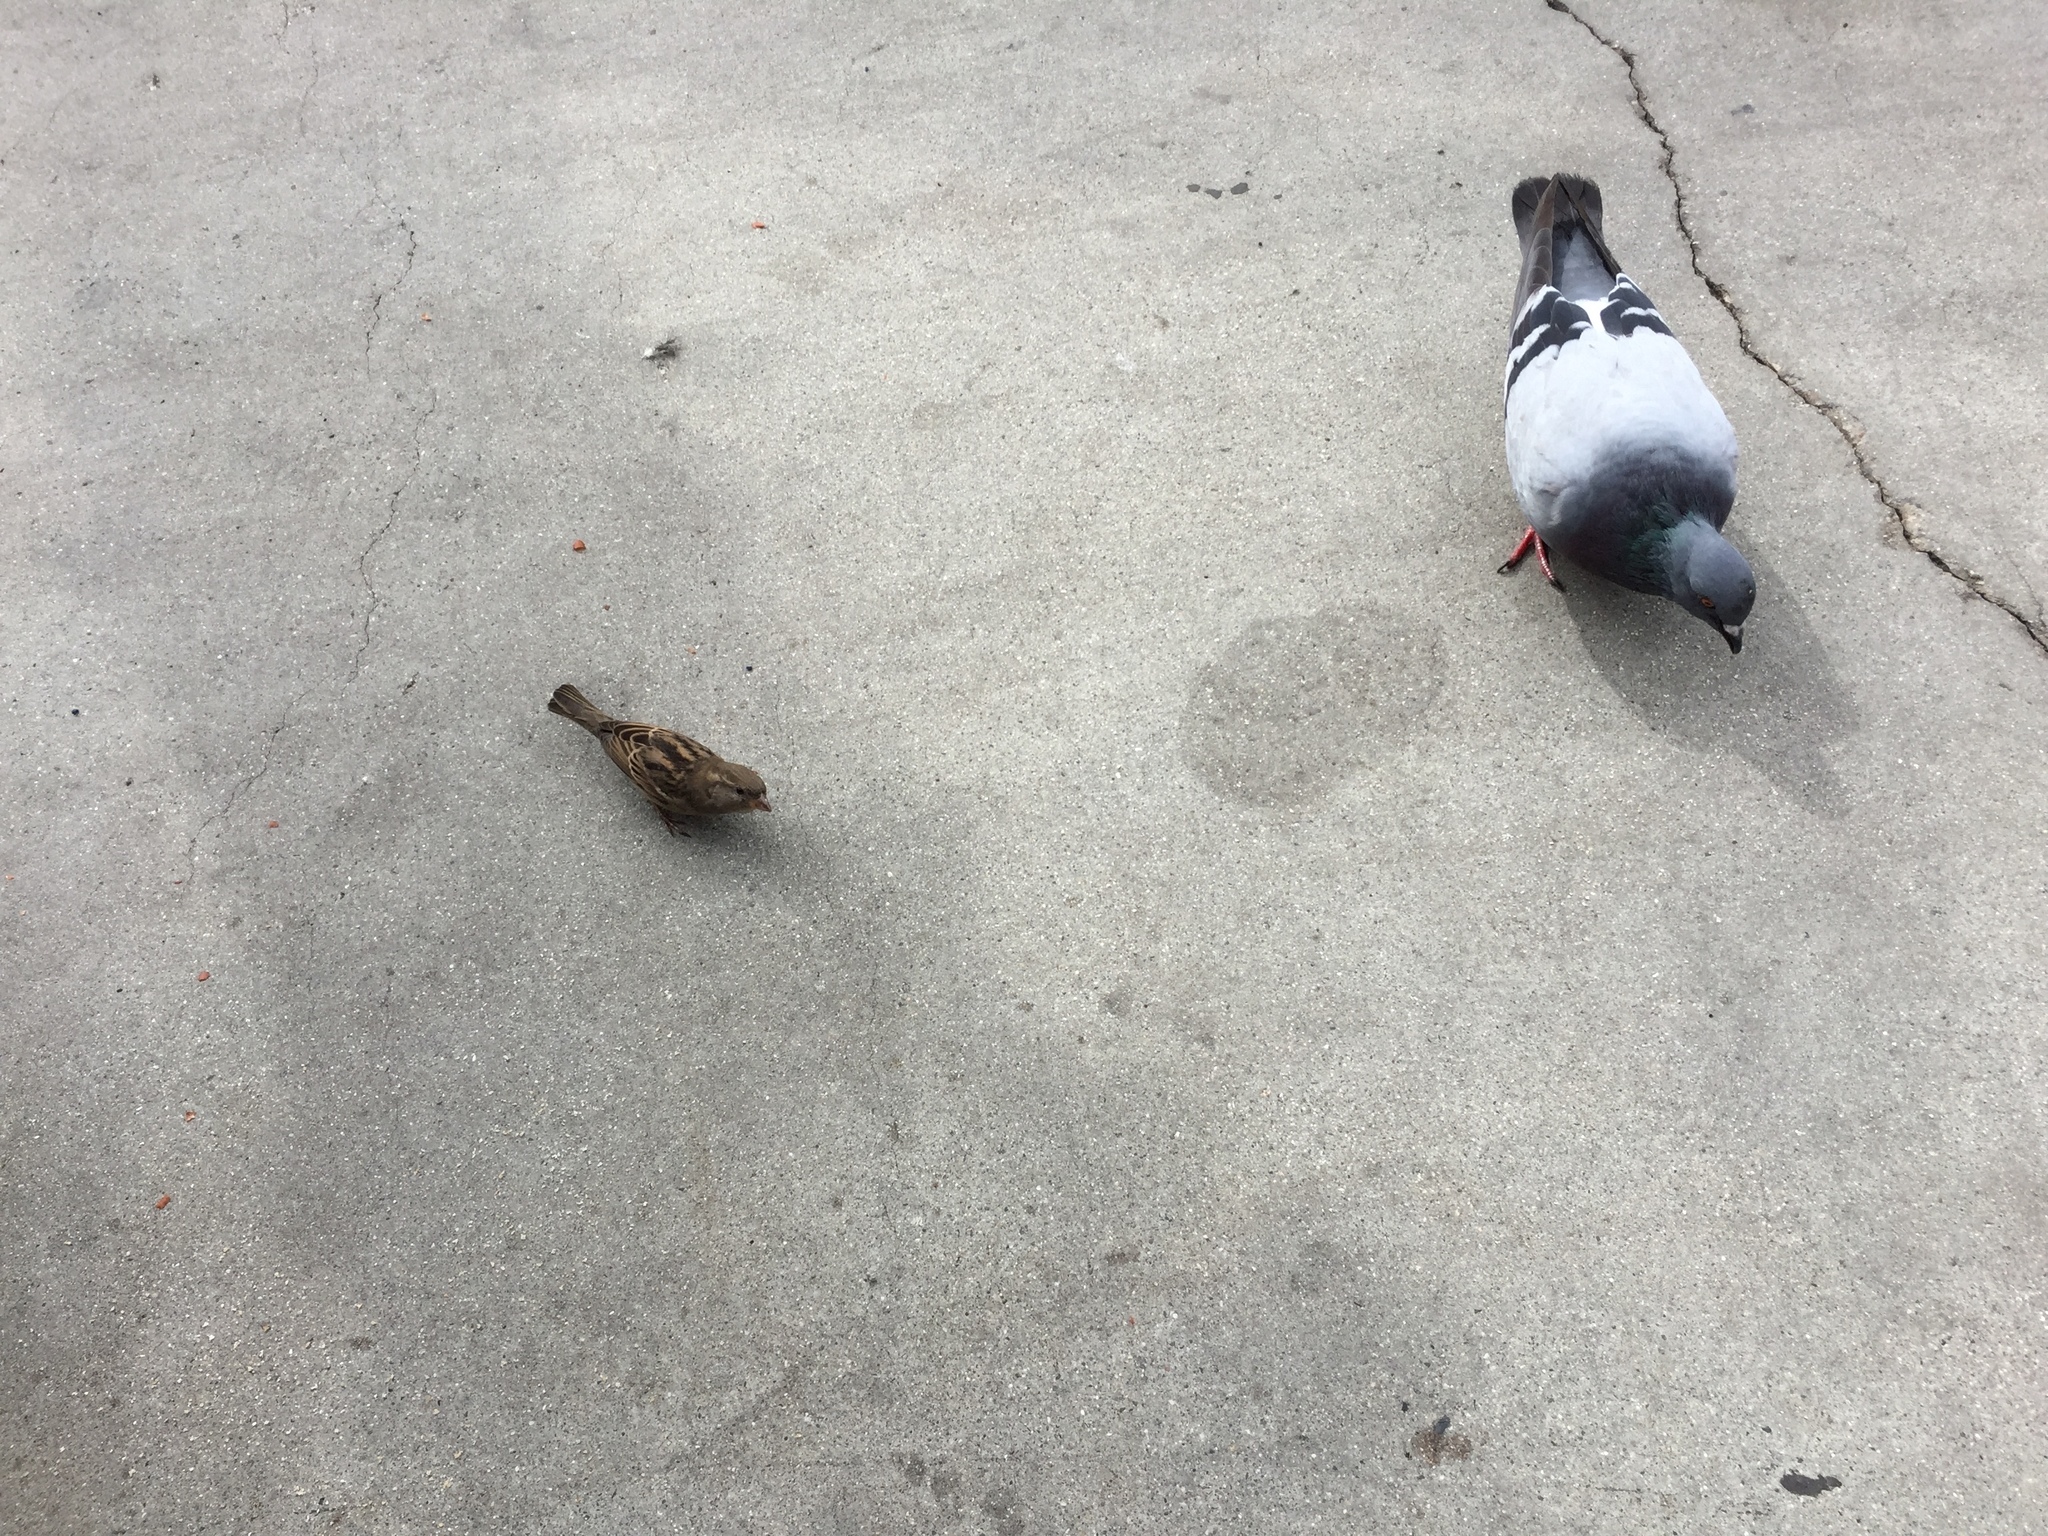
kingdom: Animalia
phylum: Chordata
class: Aves
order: Passeriformes
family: Passeridae
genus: Passer
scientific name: Passer domesticus
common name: House sparrow
